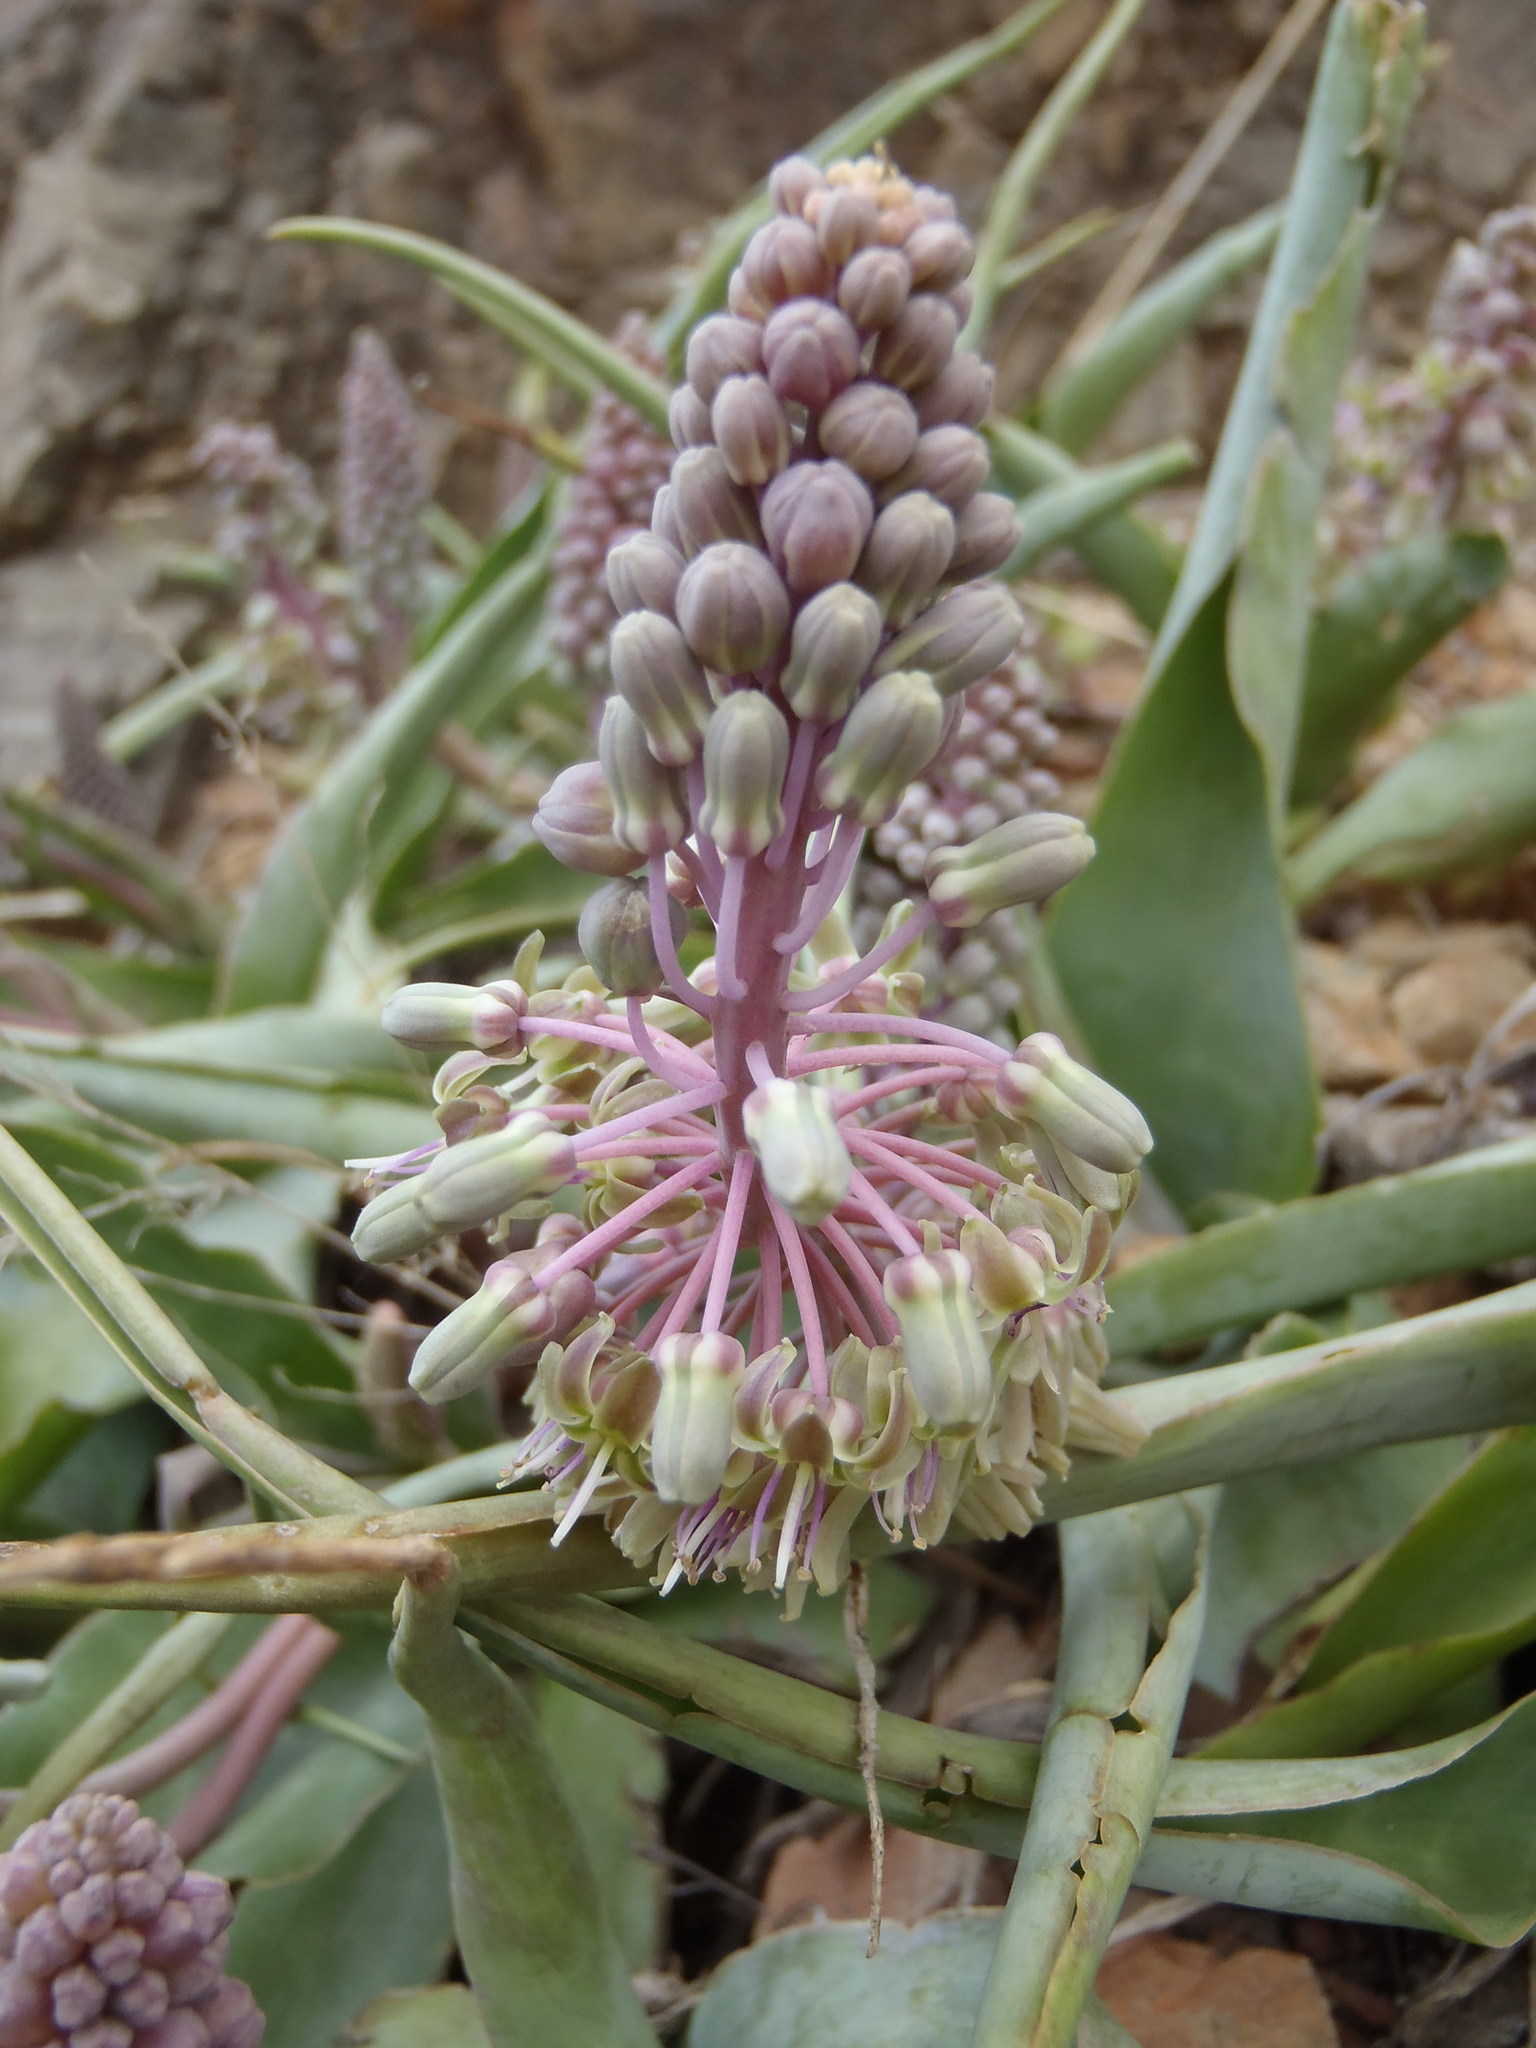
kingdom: Plantae
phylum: Tracheophyta
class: Liliopsida
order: Asparagales
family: Asparagaceae
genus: Ledebouria
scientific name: Ledebouria venteri
